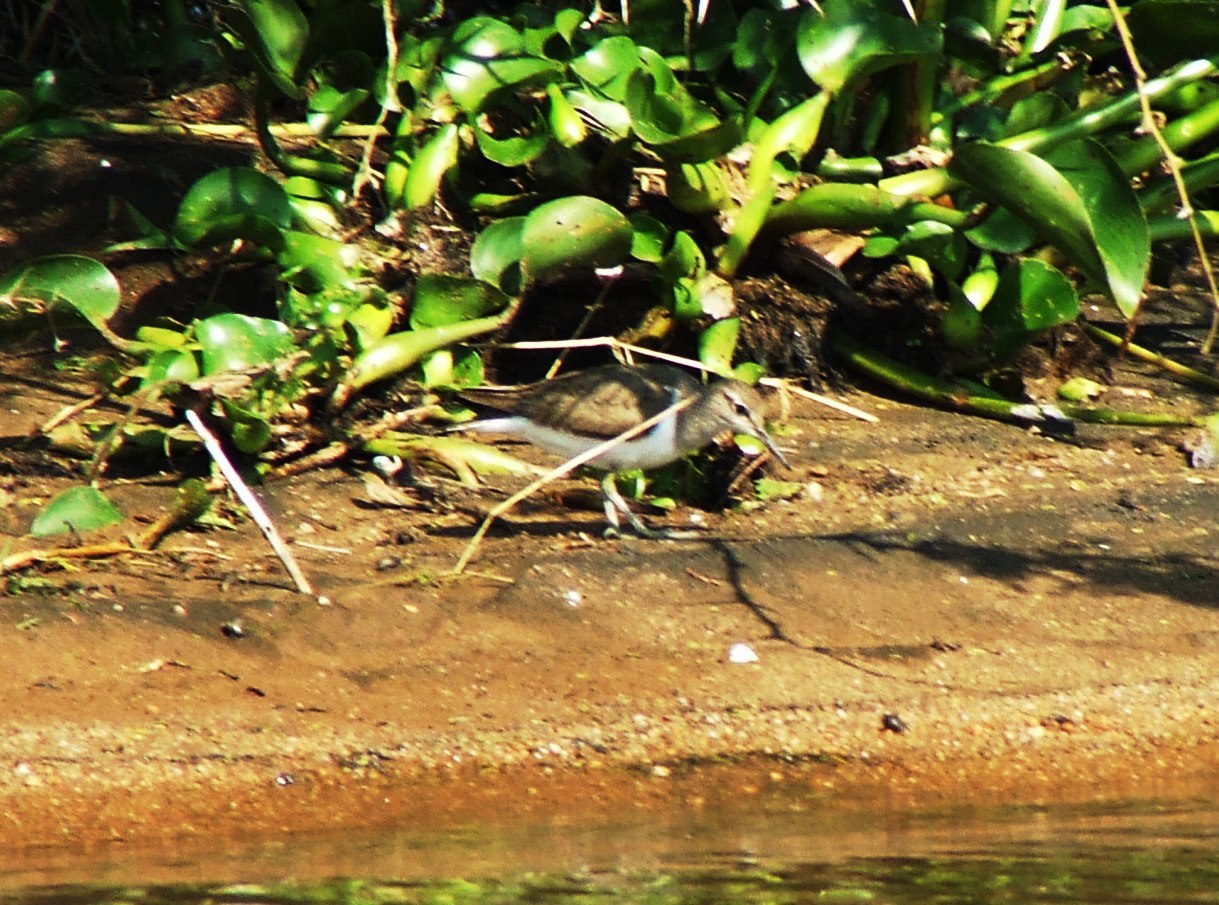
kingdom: Animalia
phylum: Chordata
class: Aves
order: Charadriiformes
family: Scolopacidae
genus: Actitis
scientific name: Actitis hypoleucos
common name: Common sandpiper
